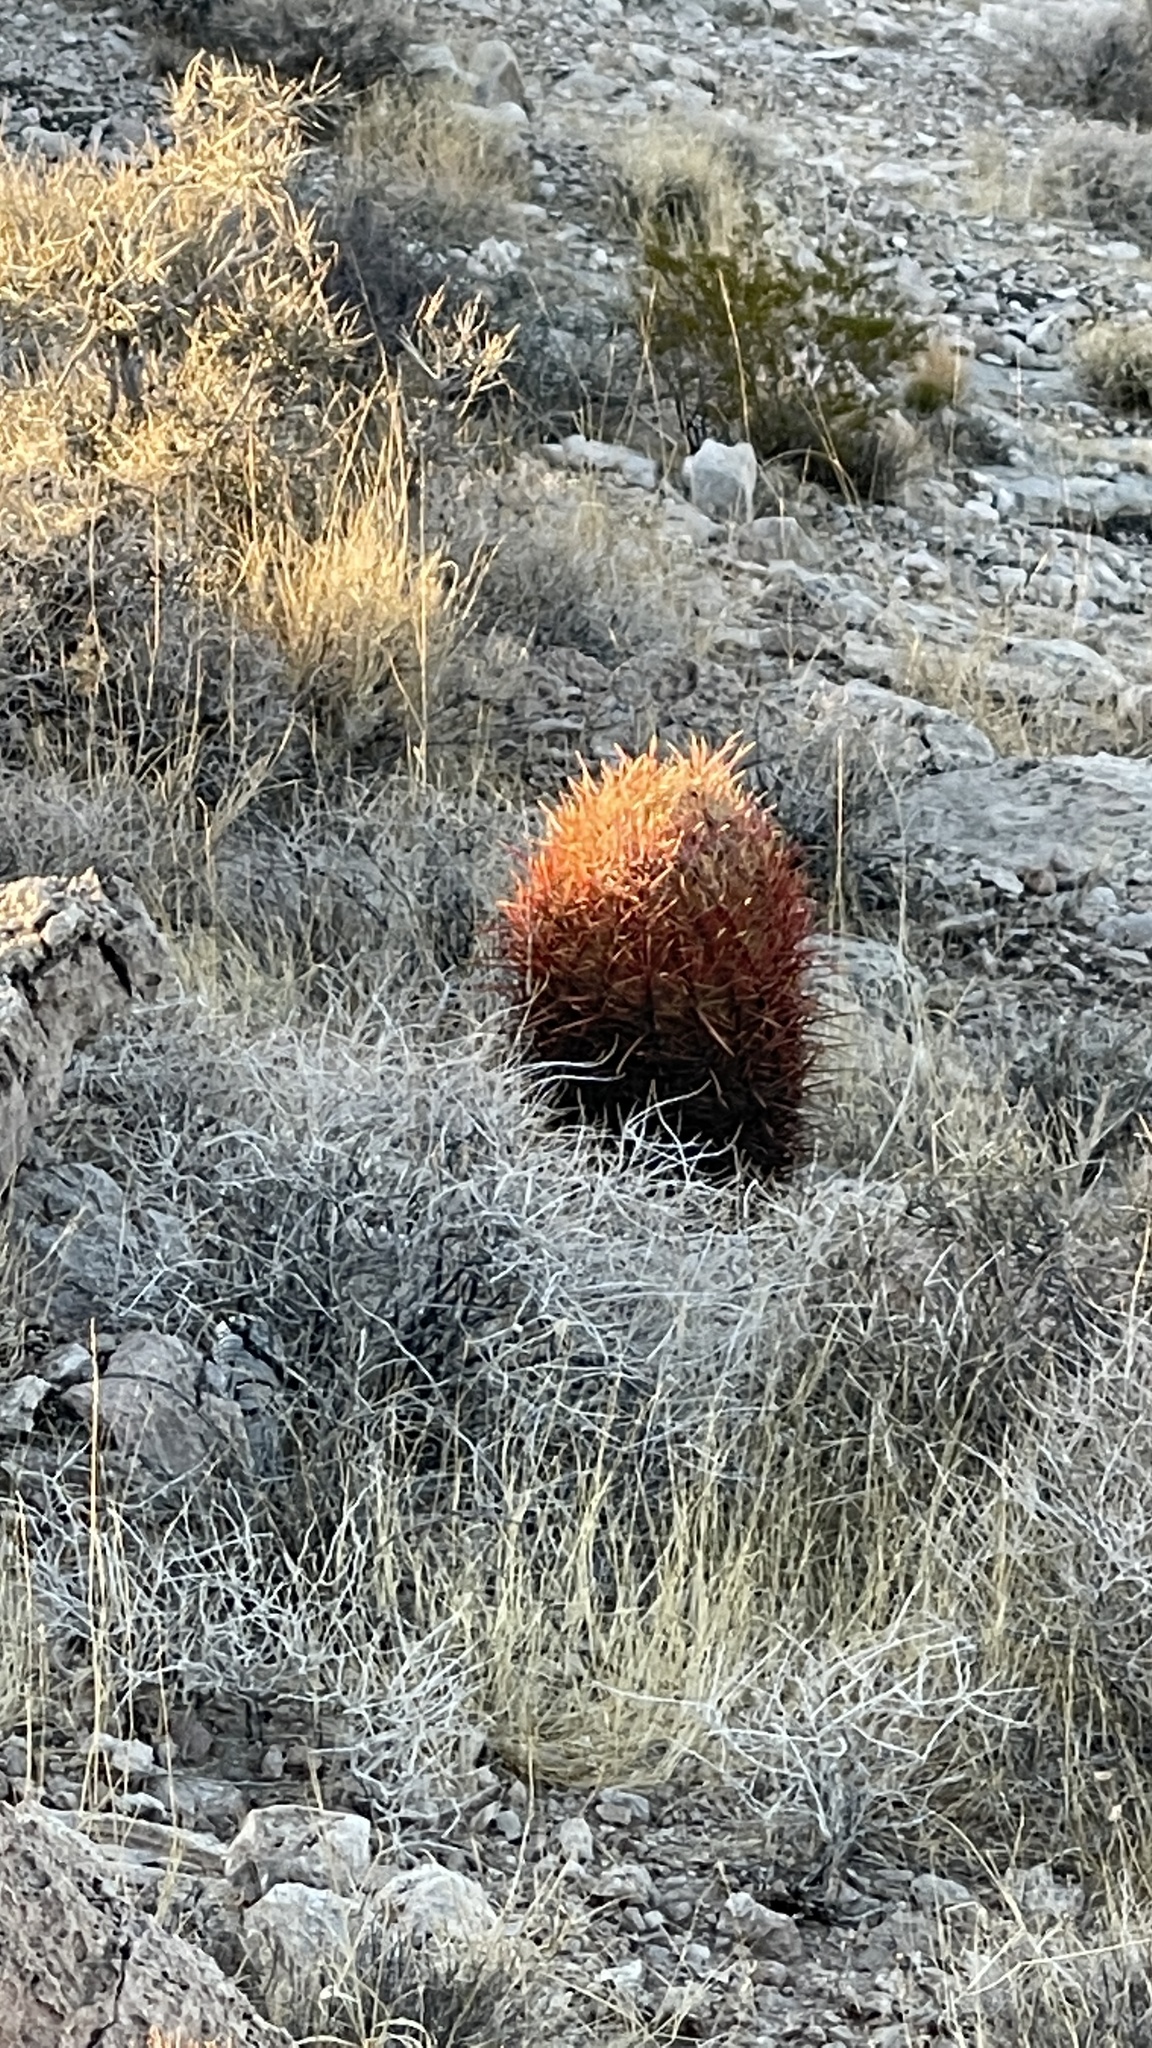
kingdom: Plantae
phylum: Tracheophyta
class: Magnoliopsida
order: Caryophyllales
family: Cactaceae
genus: Ferocactus
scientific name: Ferocactus cylindraceus
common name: California barrel cactus
